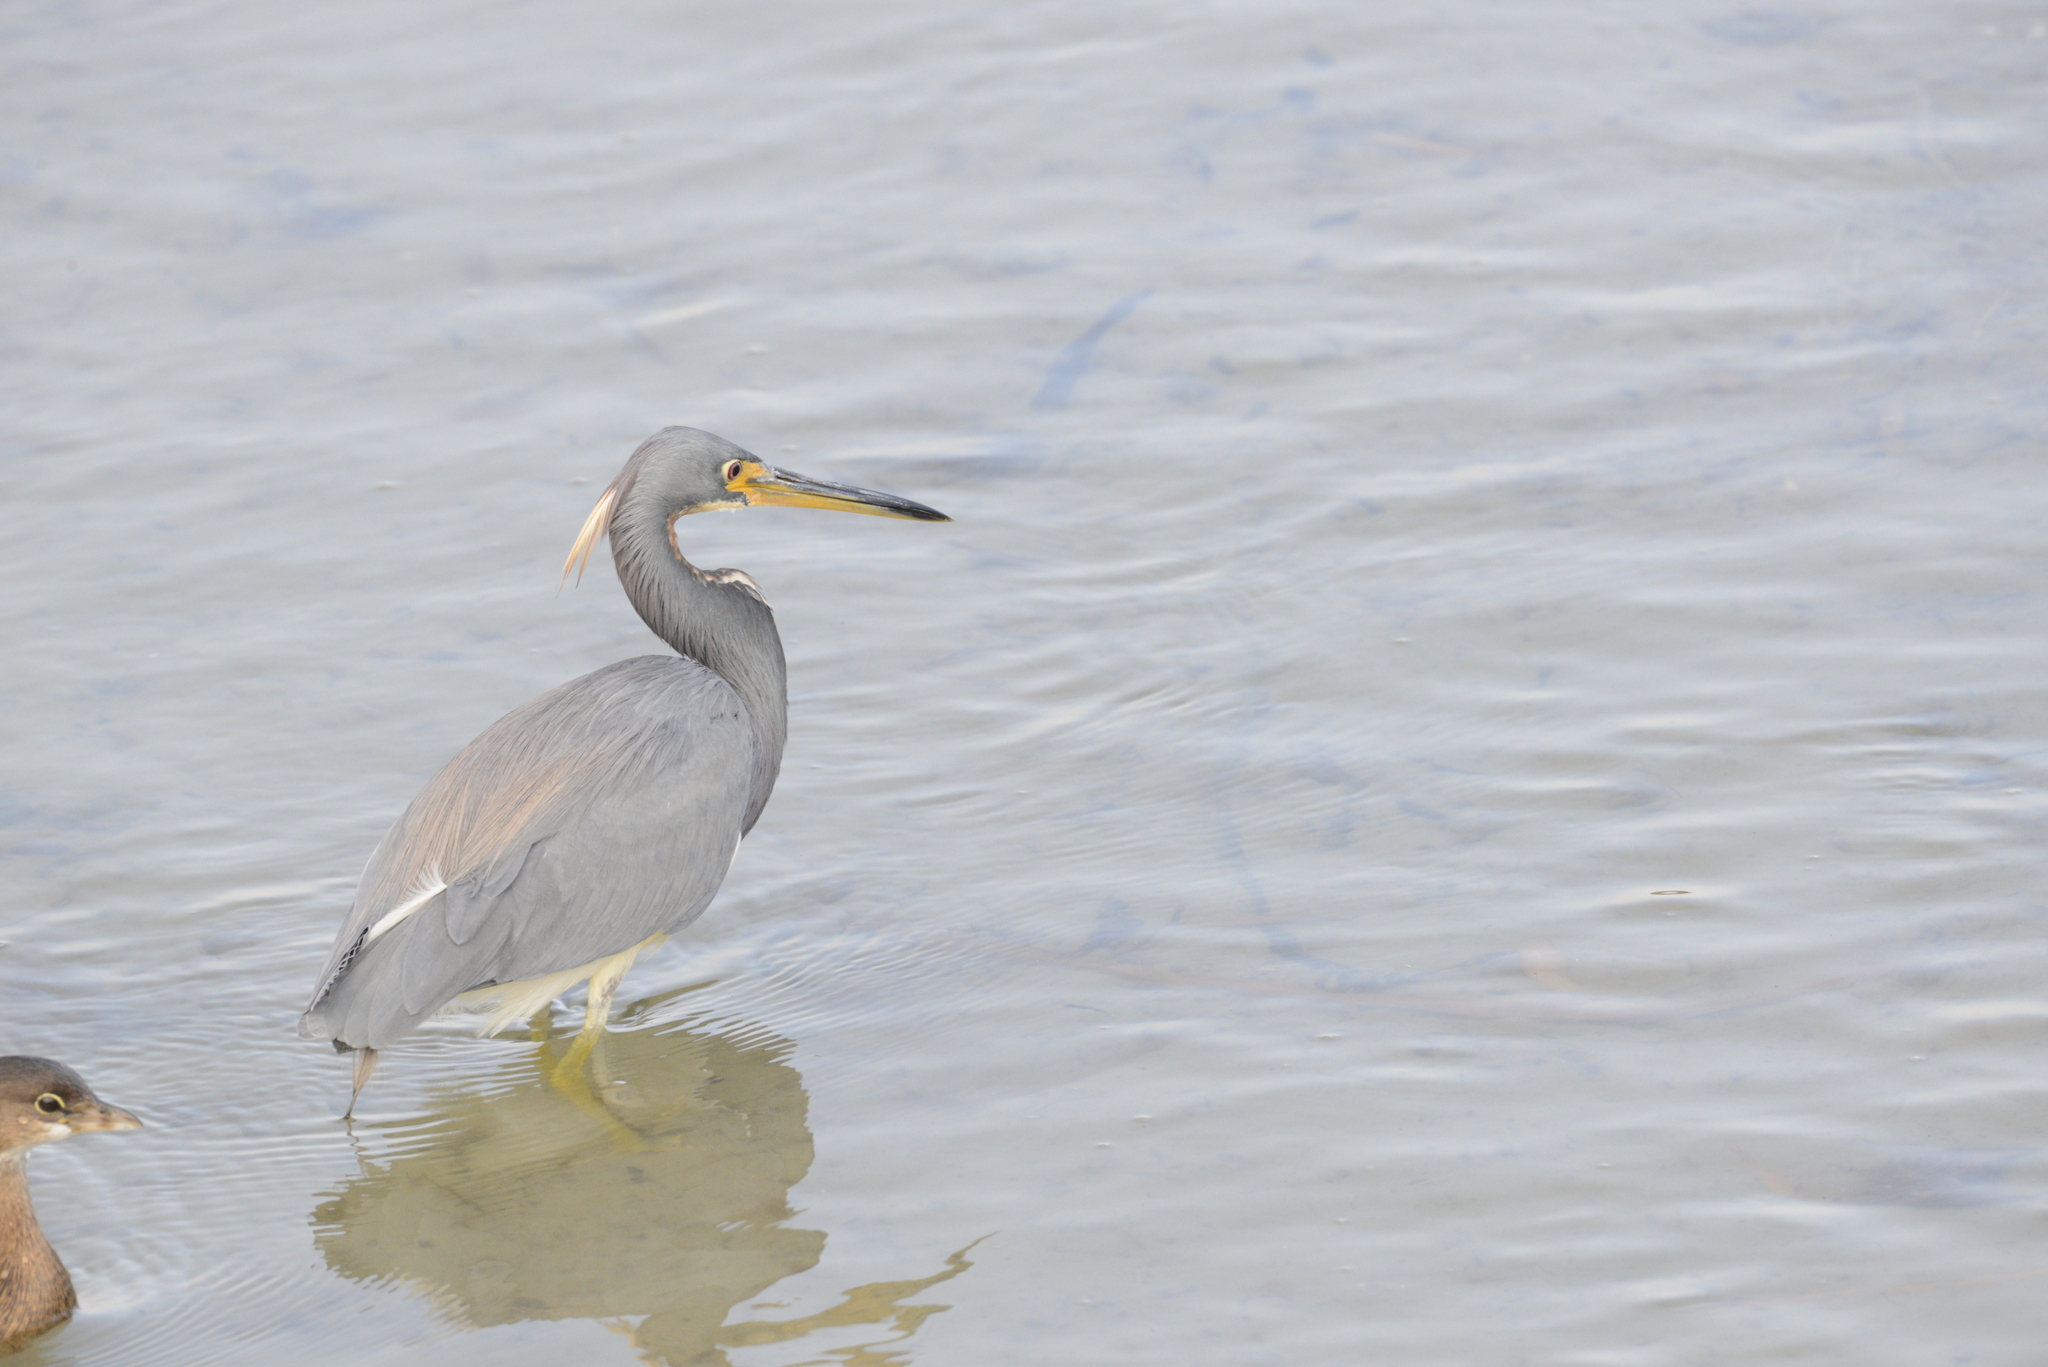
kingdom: Animalia
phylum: Chordata
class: Aves
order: Pelecaniformes
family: Ardeidae
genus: Egretta
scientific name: Egretta tricolor
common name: Tricolored heron
